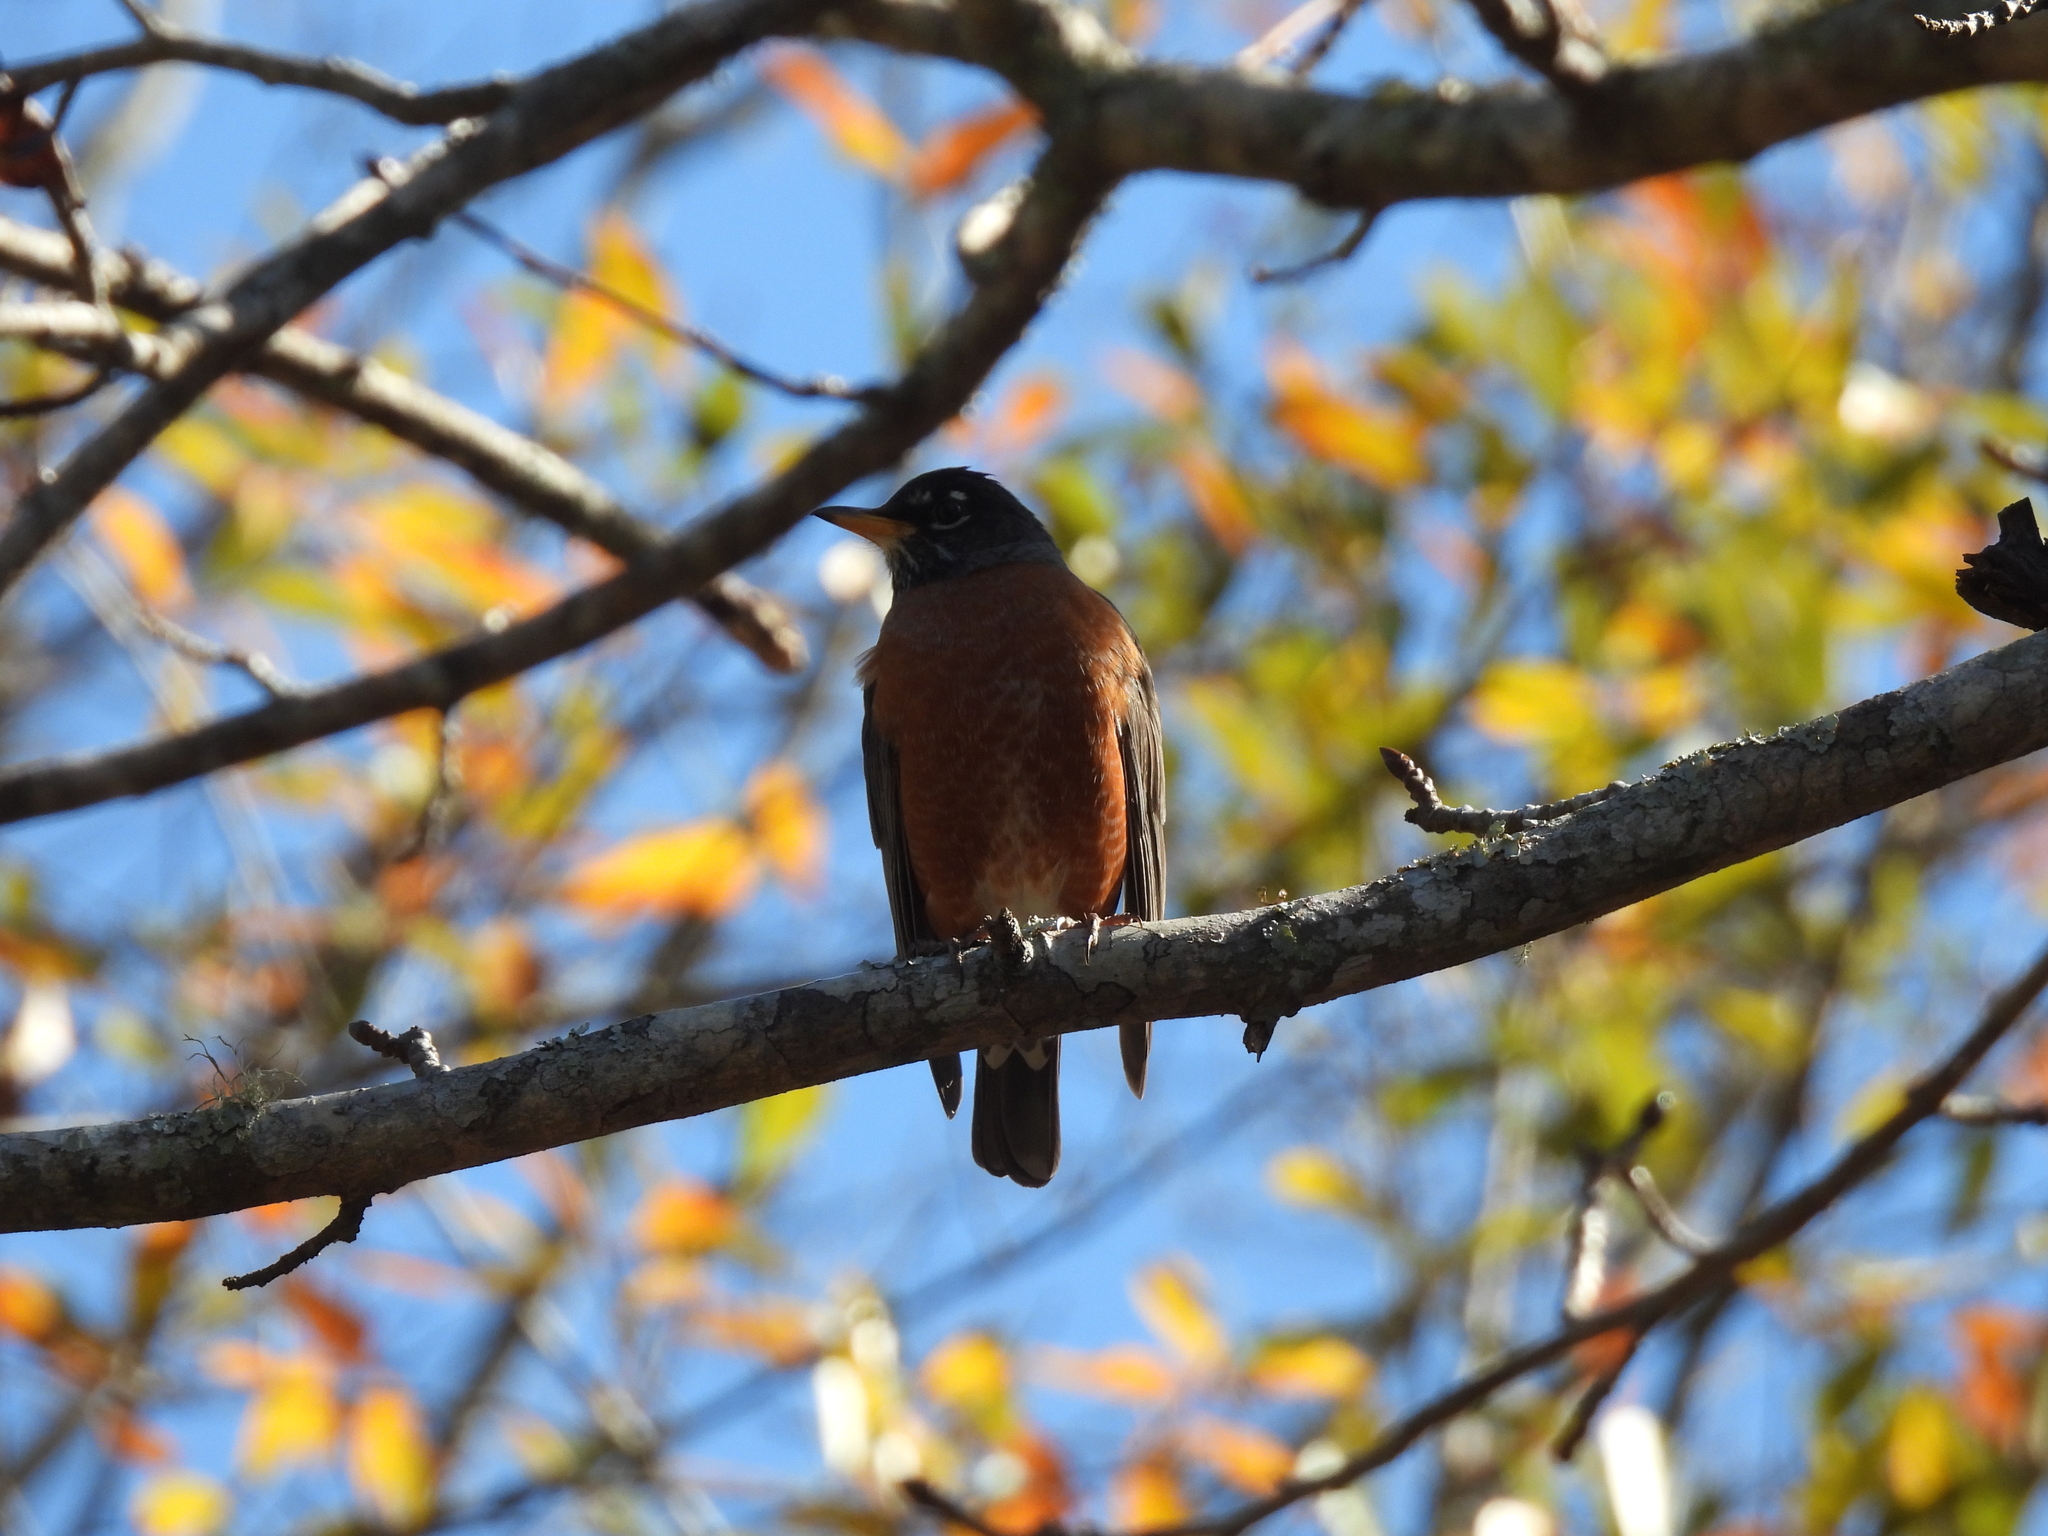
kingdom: Animalia
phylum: Chordata
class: Aves
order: Passeriformes
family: Turdidae
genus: Turdus
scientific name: Turdus migratorius
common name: American robin
